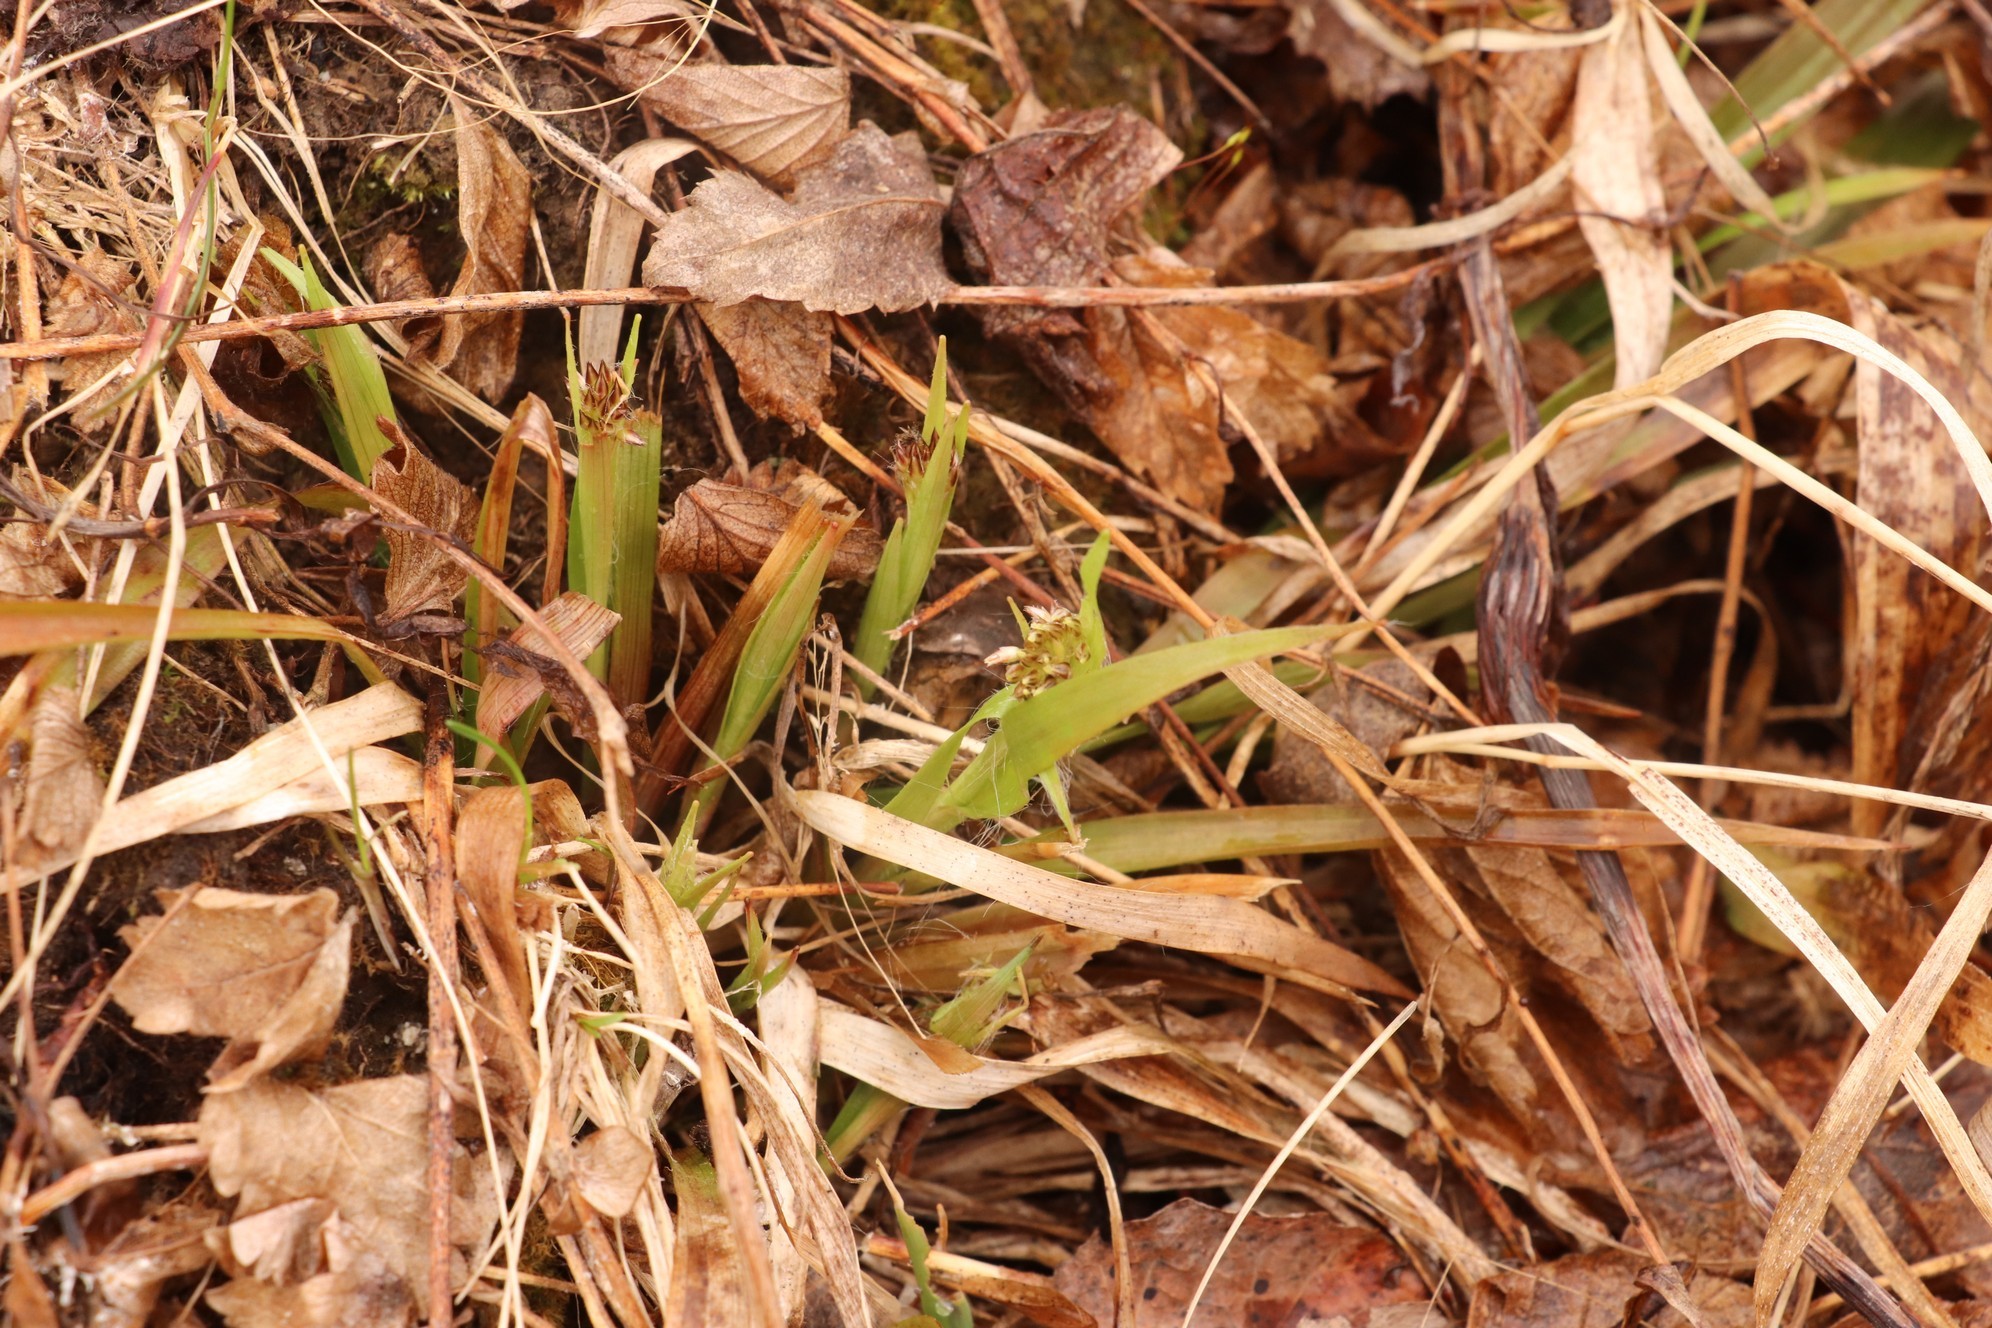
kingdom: Plantae
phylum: Tracheophyta
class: Liliopsida
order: Poales
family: Juncaceae
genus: Luzula
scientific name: Luzula pilosa
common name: Hairy wood-rush
